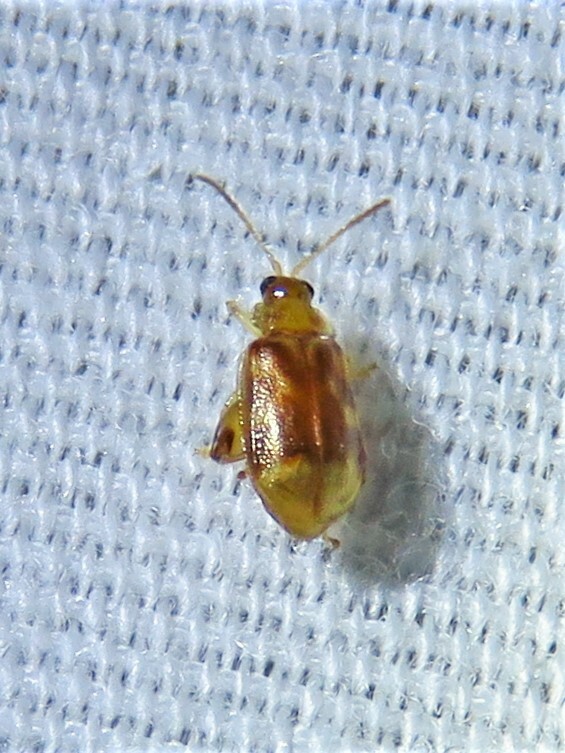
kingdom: Animalia
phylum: Arthropoda
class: Insecta
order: Coleoptera
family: Chrysomelidae
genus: Capraita
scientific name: Capraita
